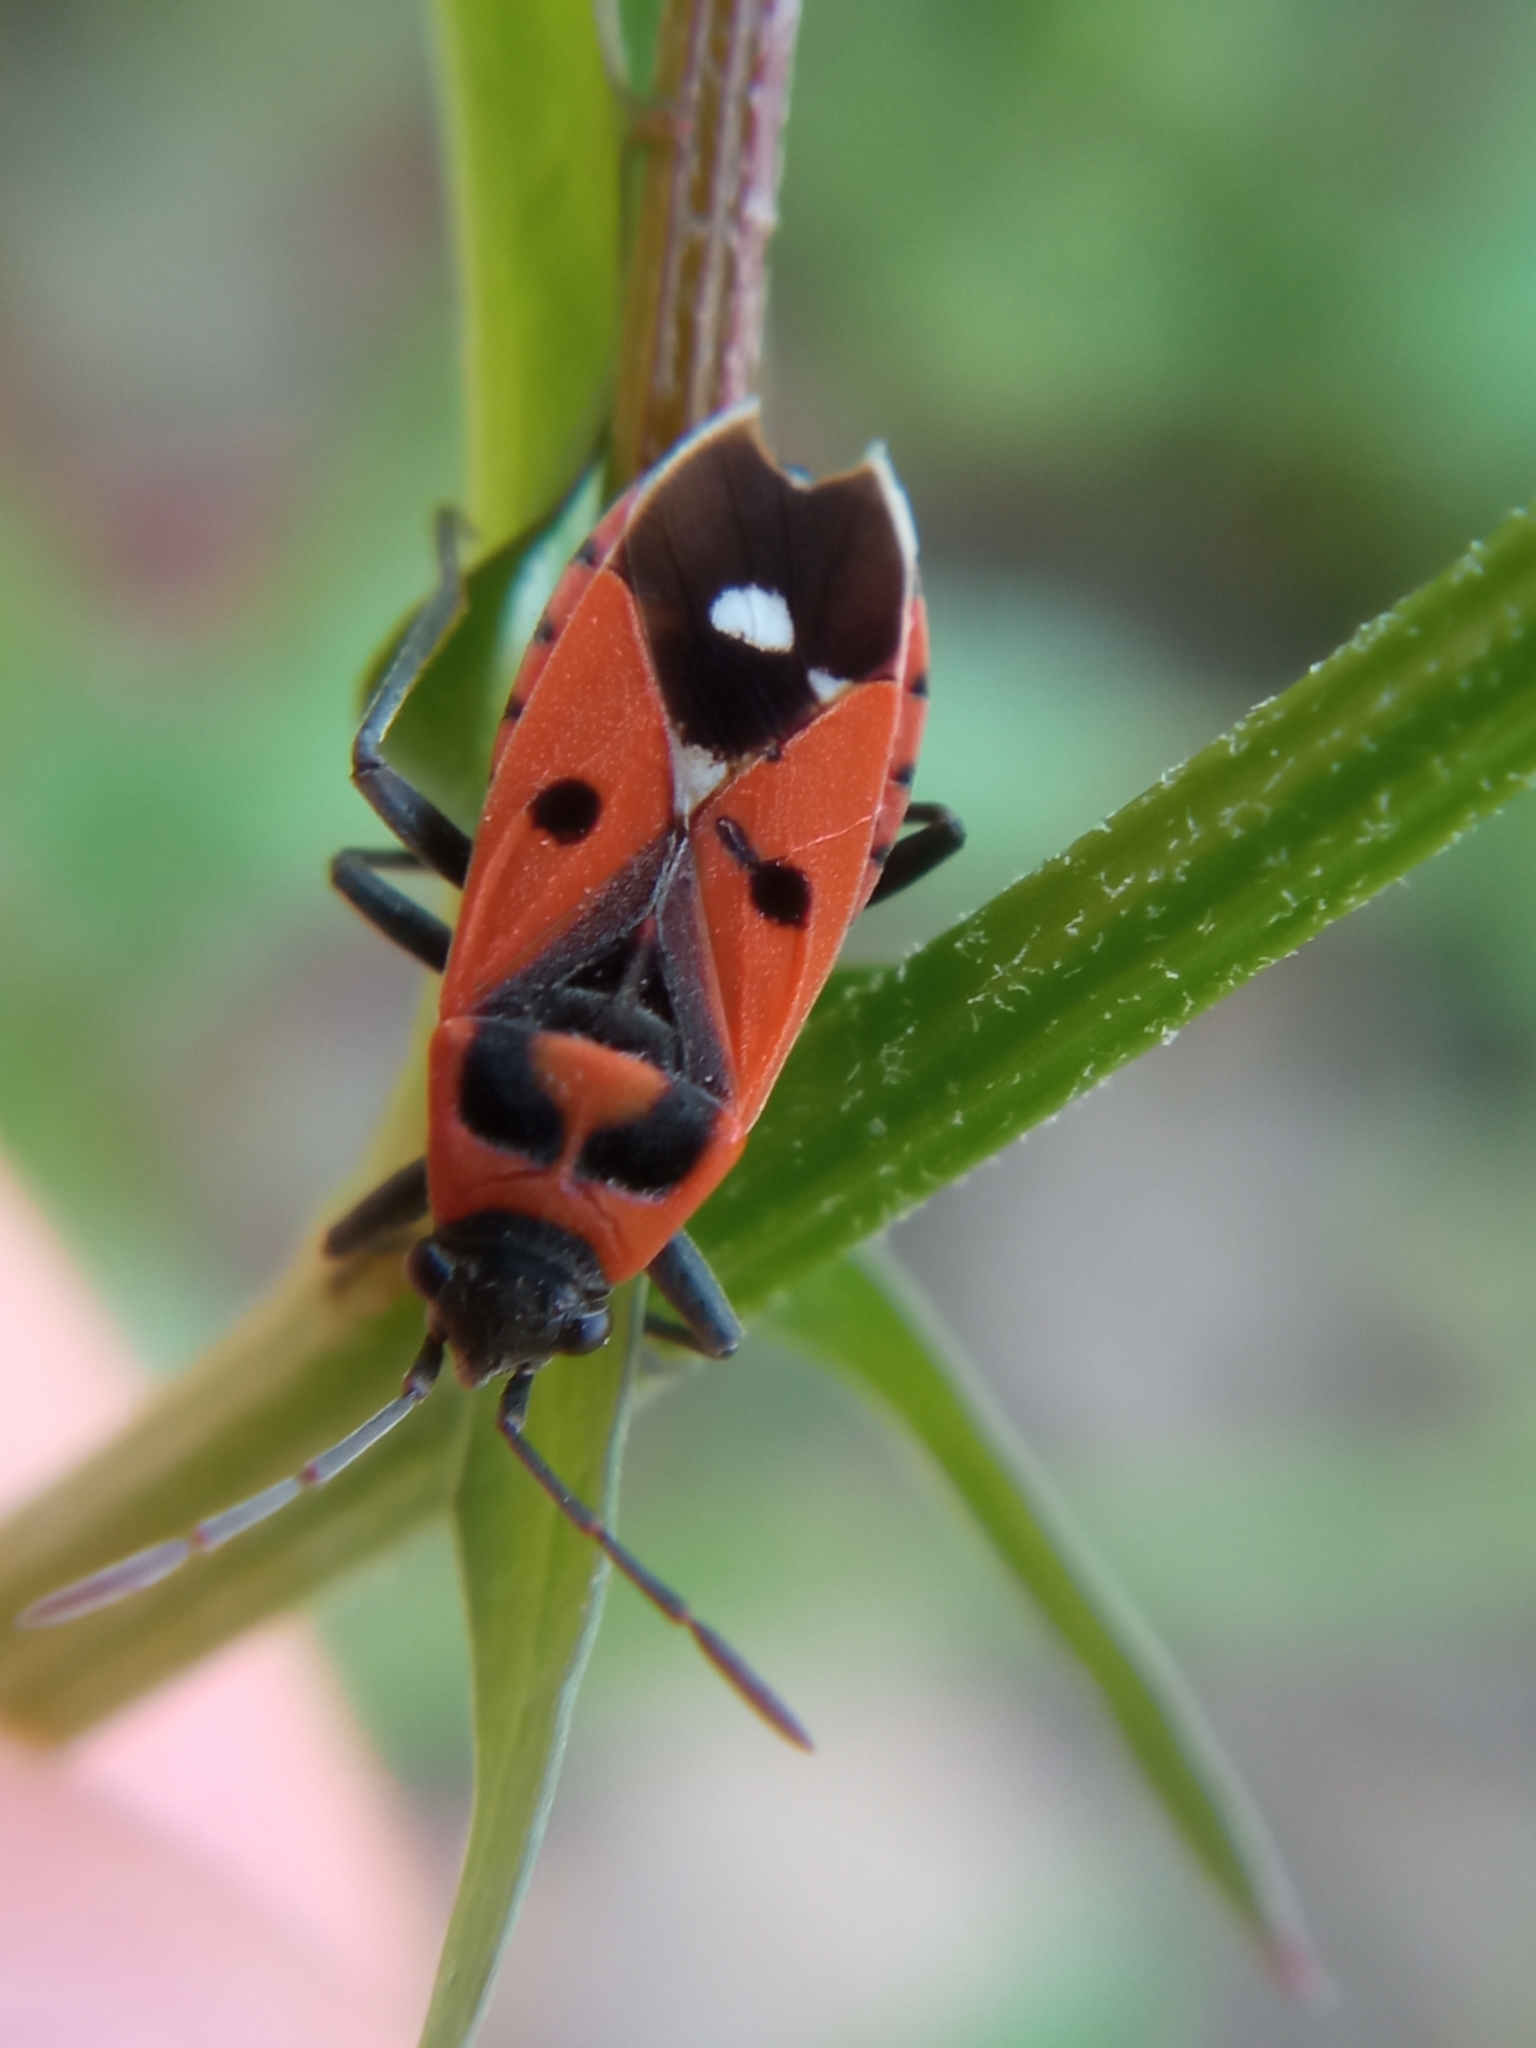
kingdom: Animalia
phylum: Arthropoda
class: Insecta
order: Hemiptera
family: Lygaeidae
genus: Melanocoryphus
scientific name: Melanocoryphus albomaculatus
